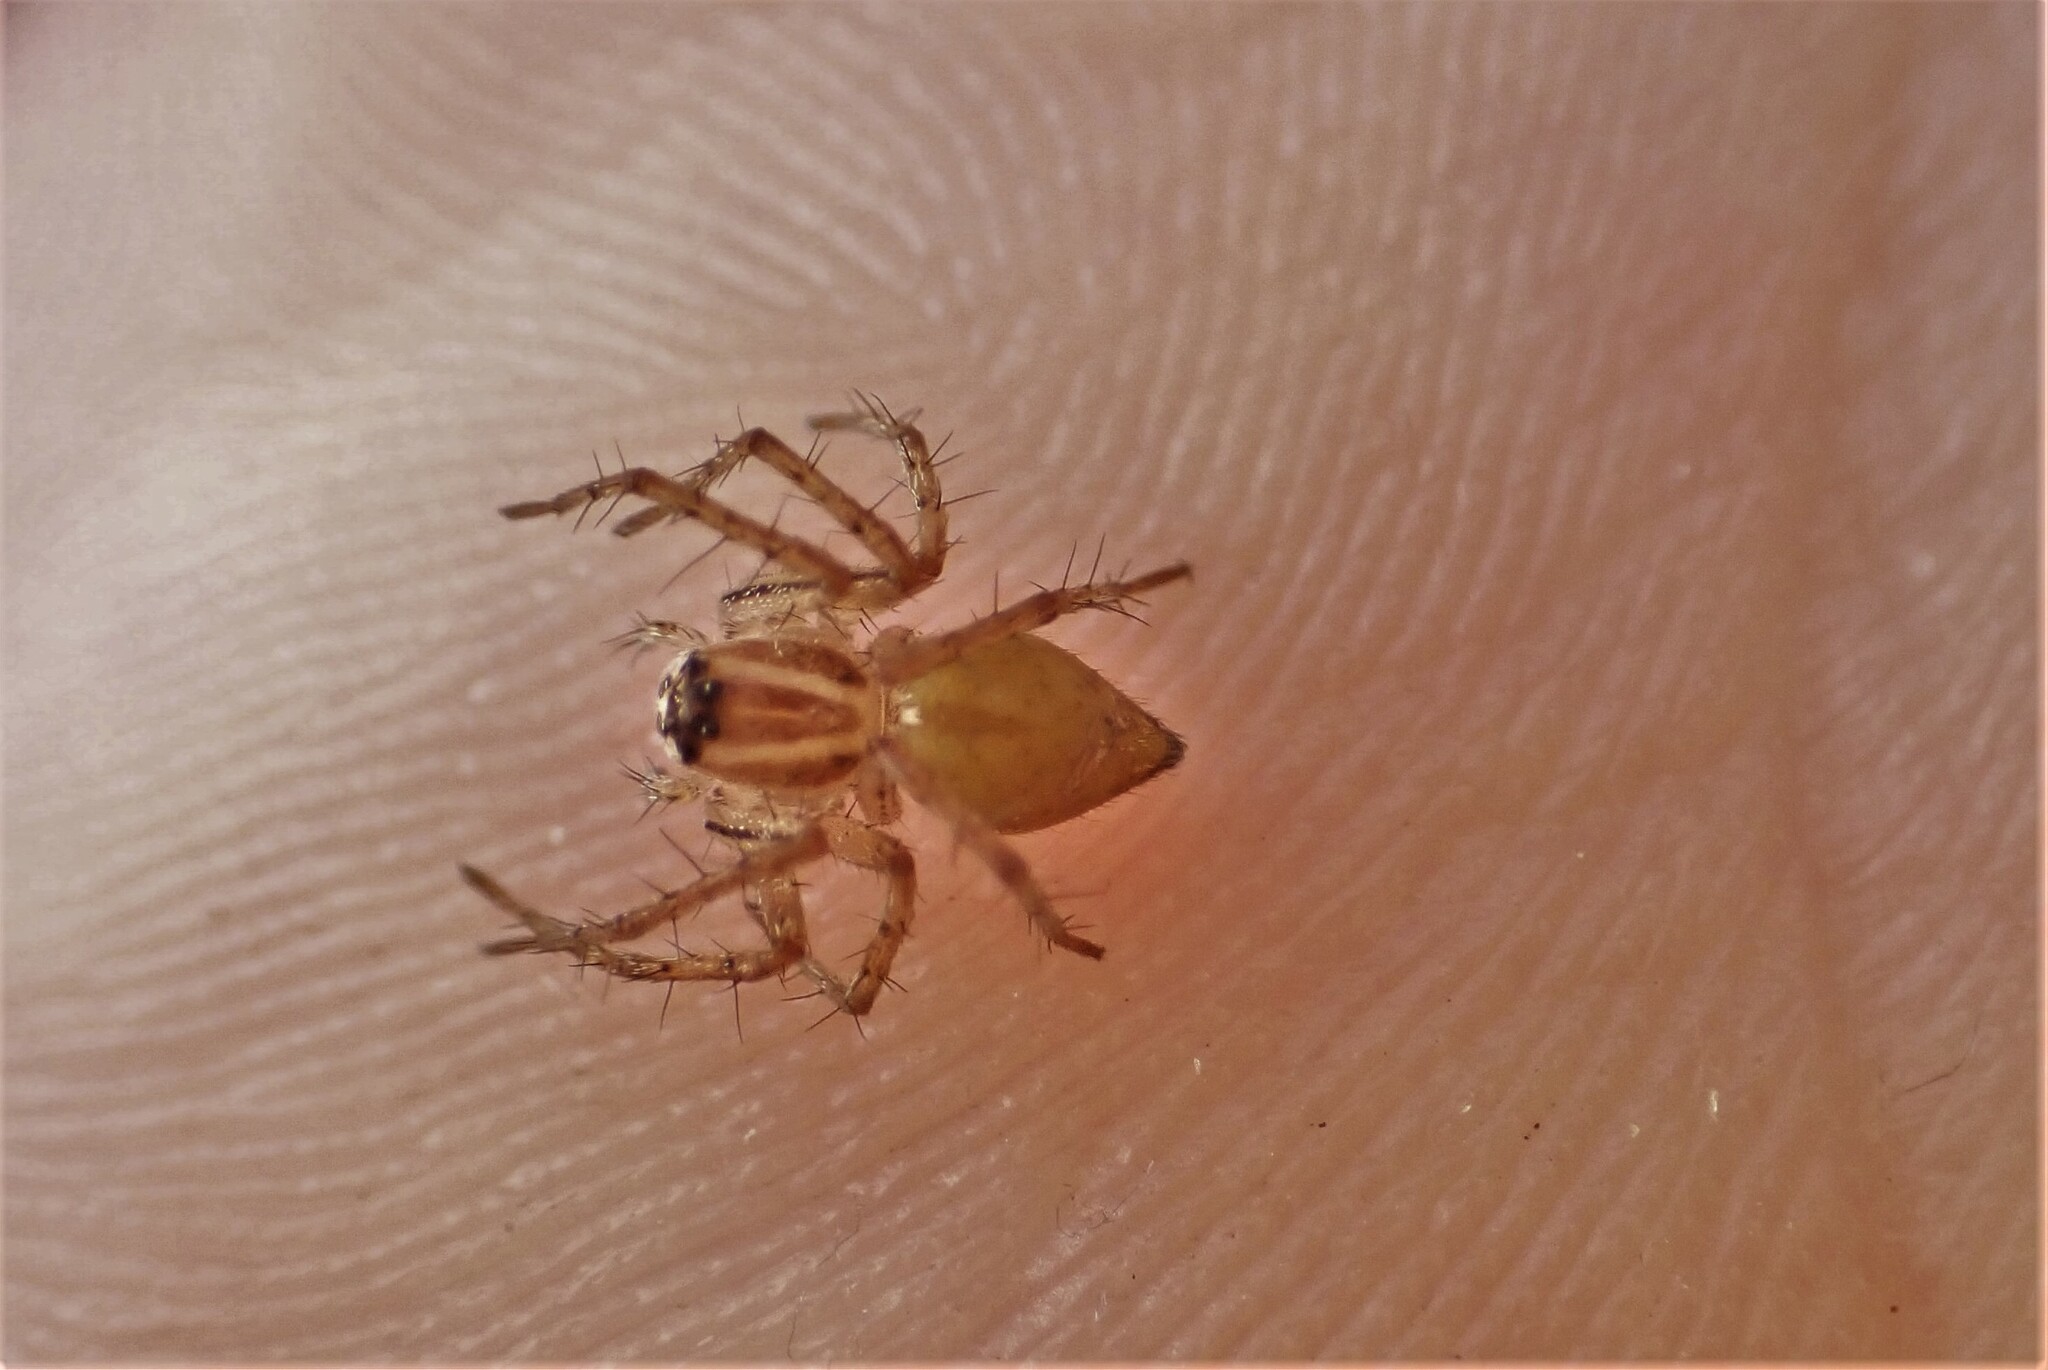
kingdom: Animalia
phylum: Arthropoda
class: Arachnida
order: Araneae
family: Oxyopidae
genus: Oxyopes
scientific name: Oxyopes gracilipes
